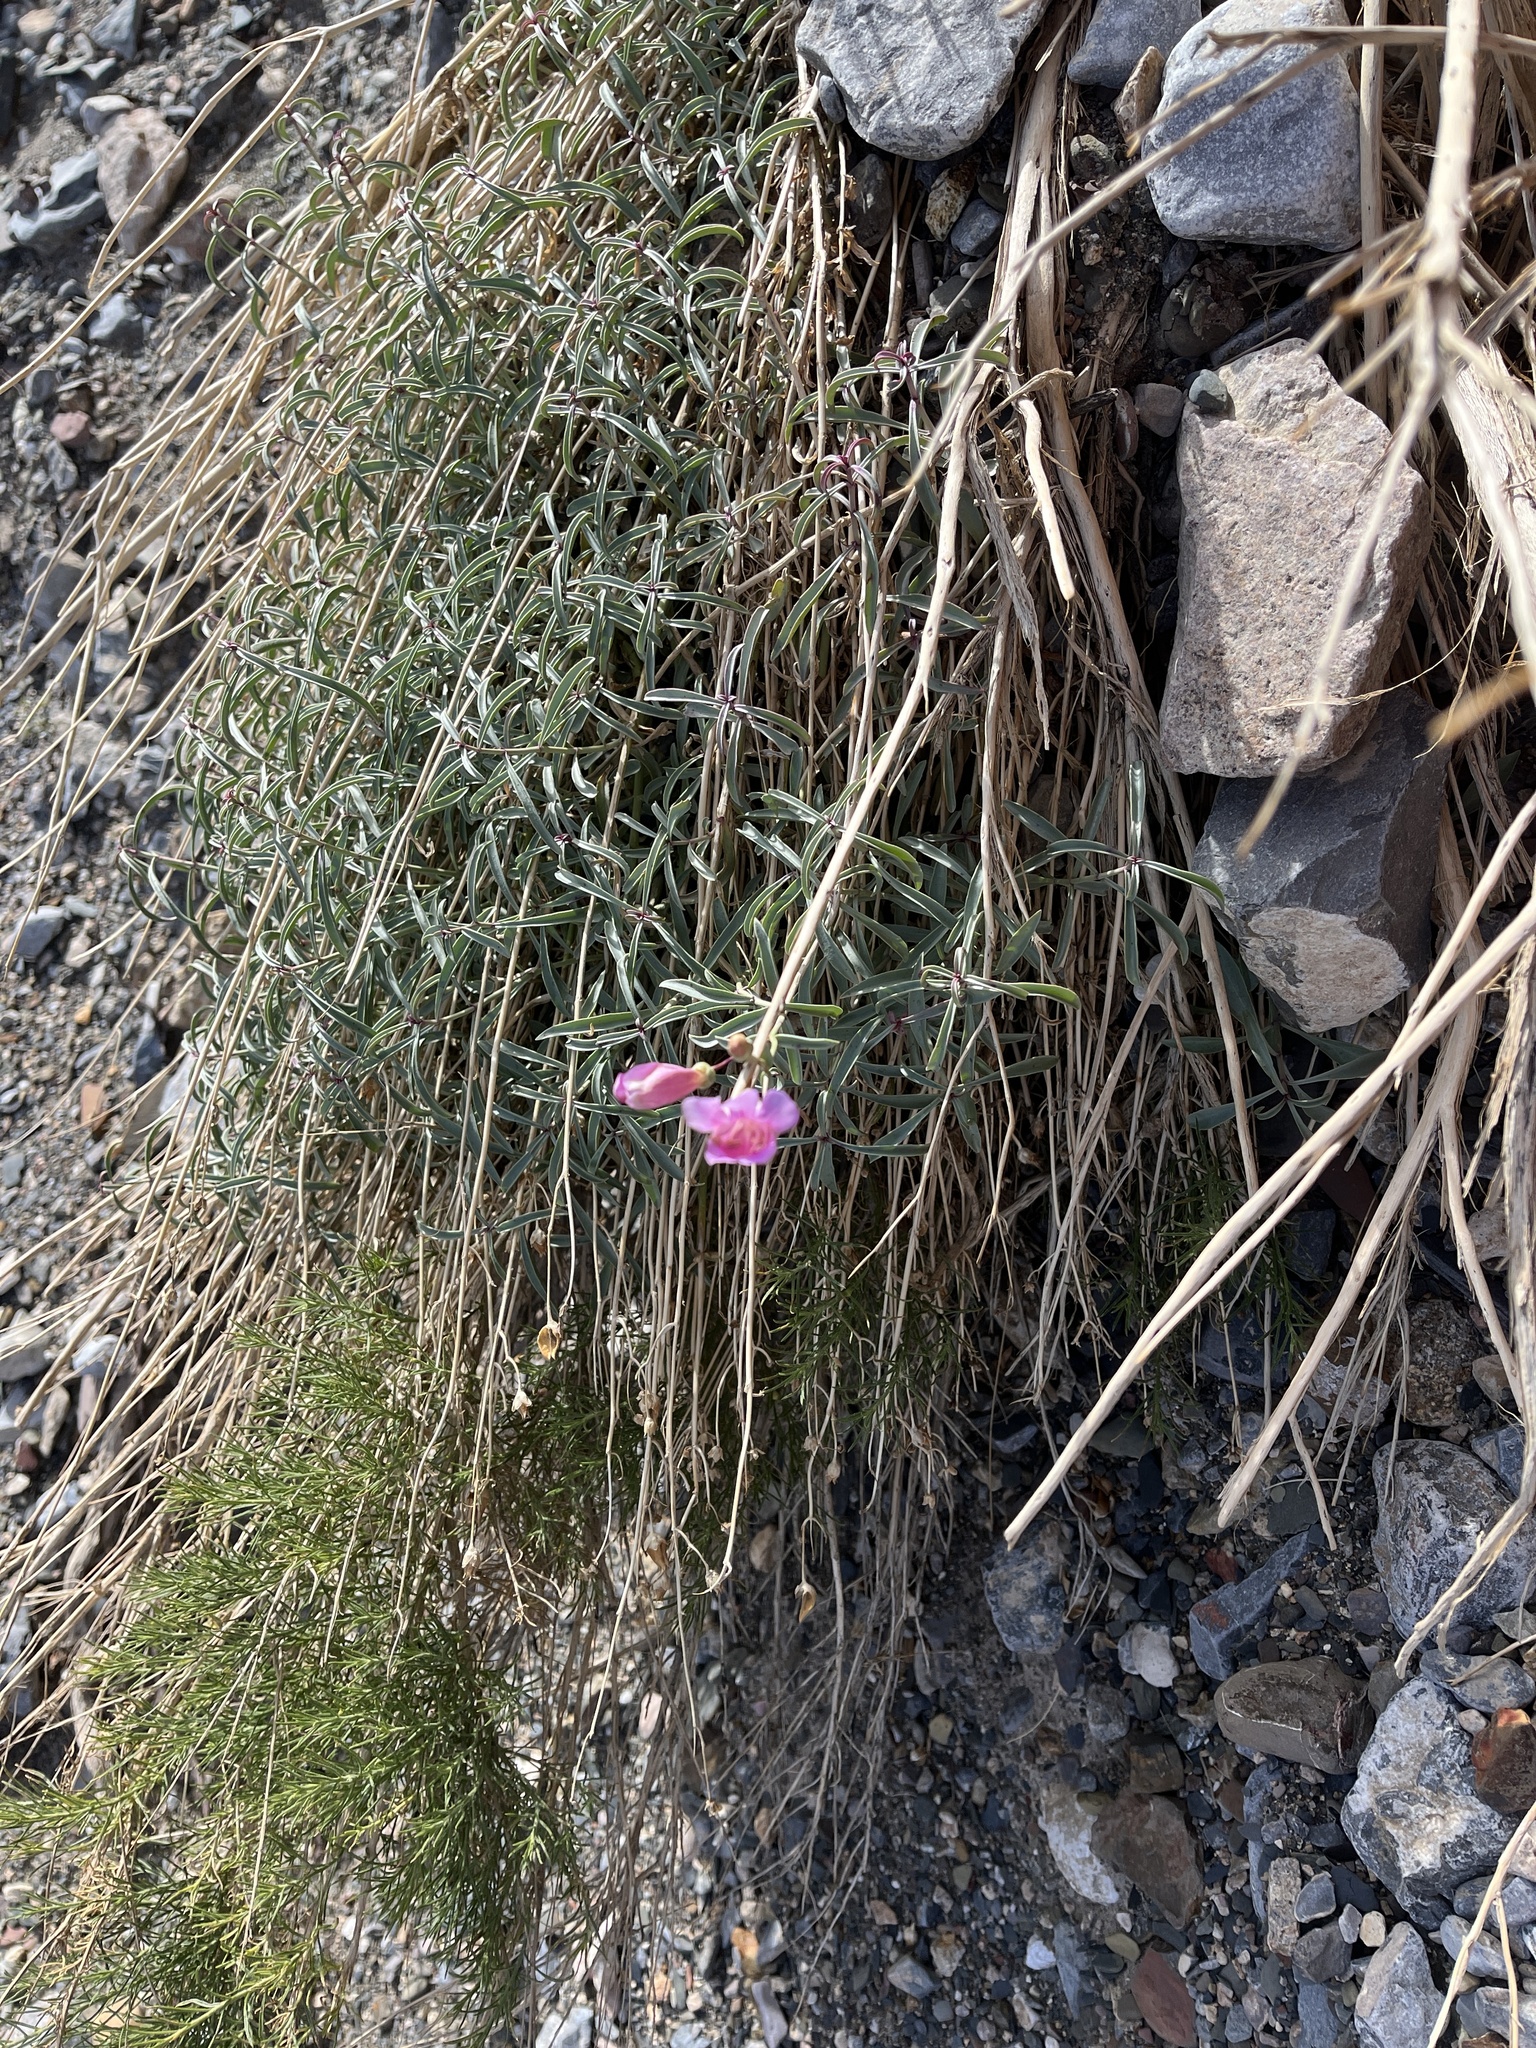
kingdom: Plantae
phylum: Tracheophyta
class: Magnoliopsida
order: Lamiales
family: Plantaginaceae
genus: Penstemon
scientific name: Penstemon fruticiformis
